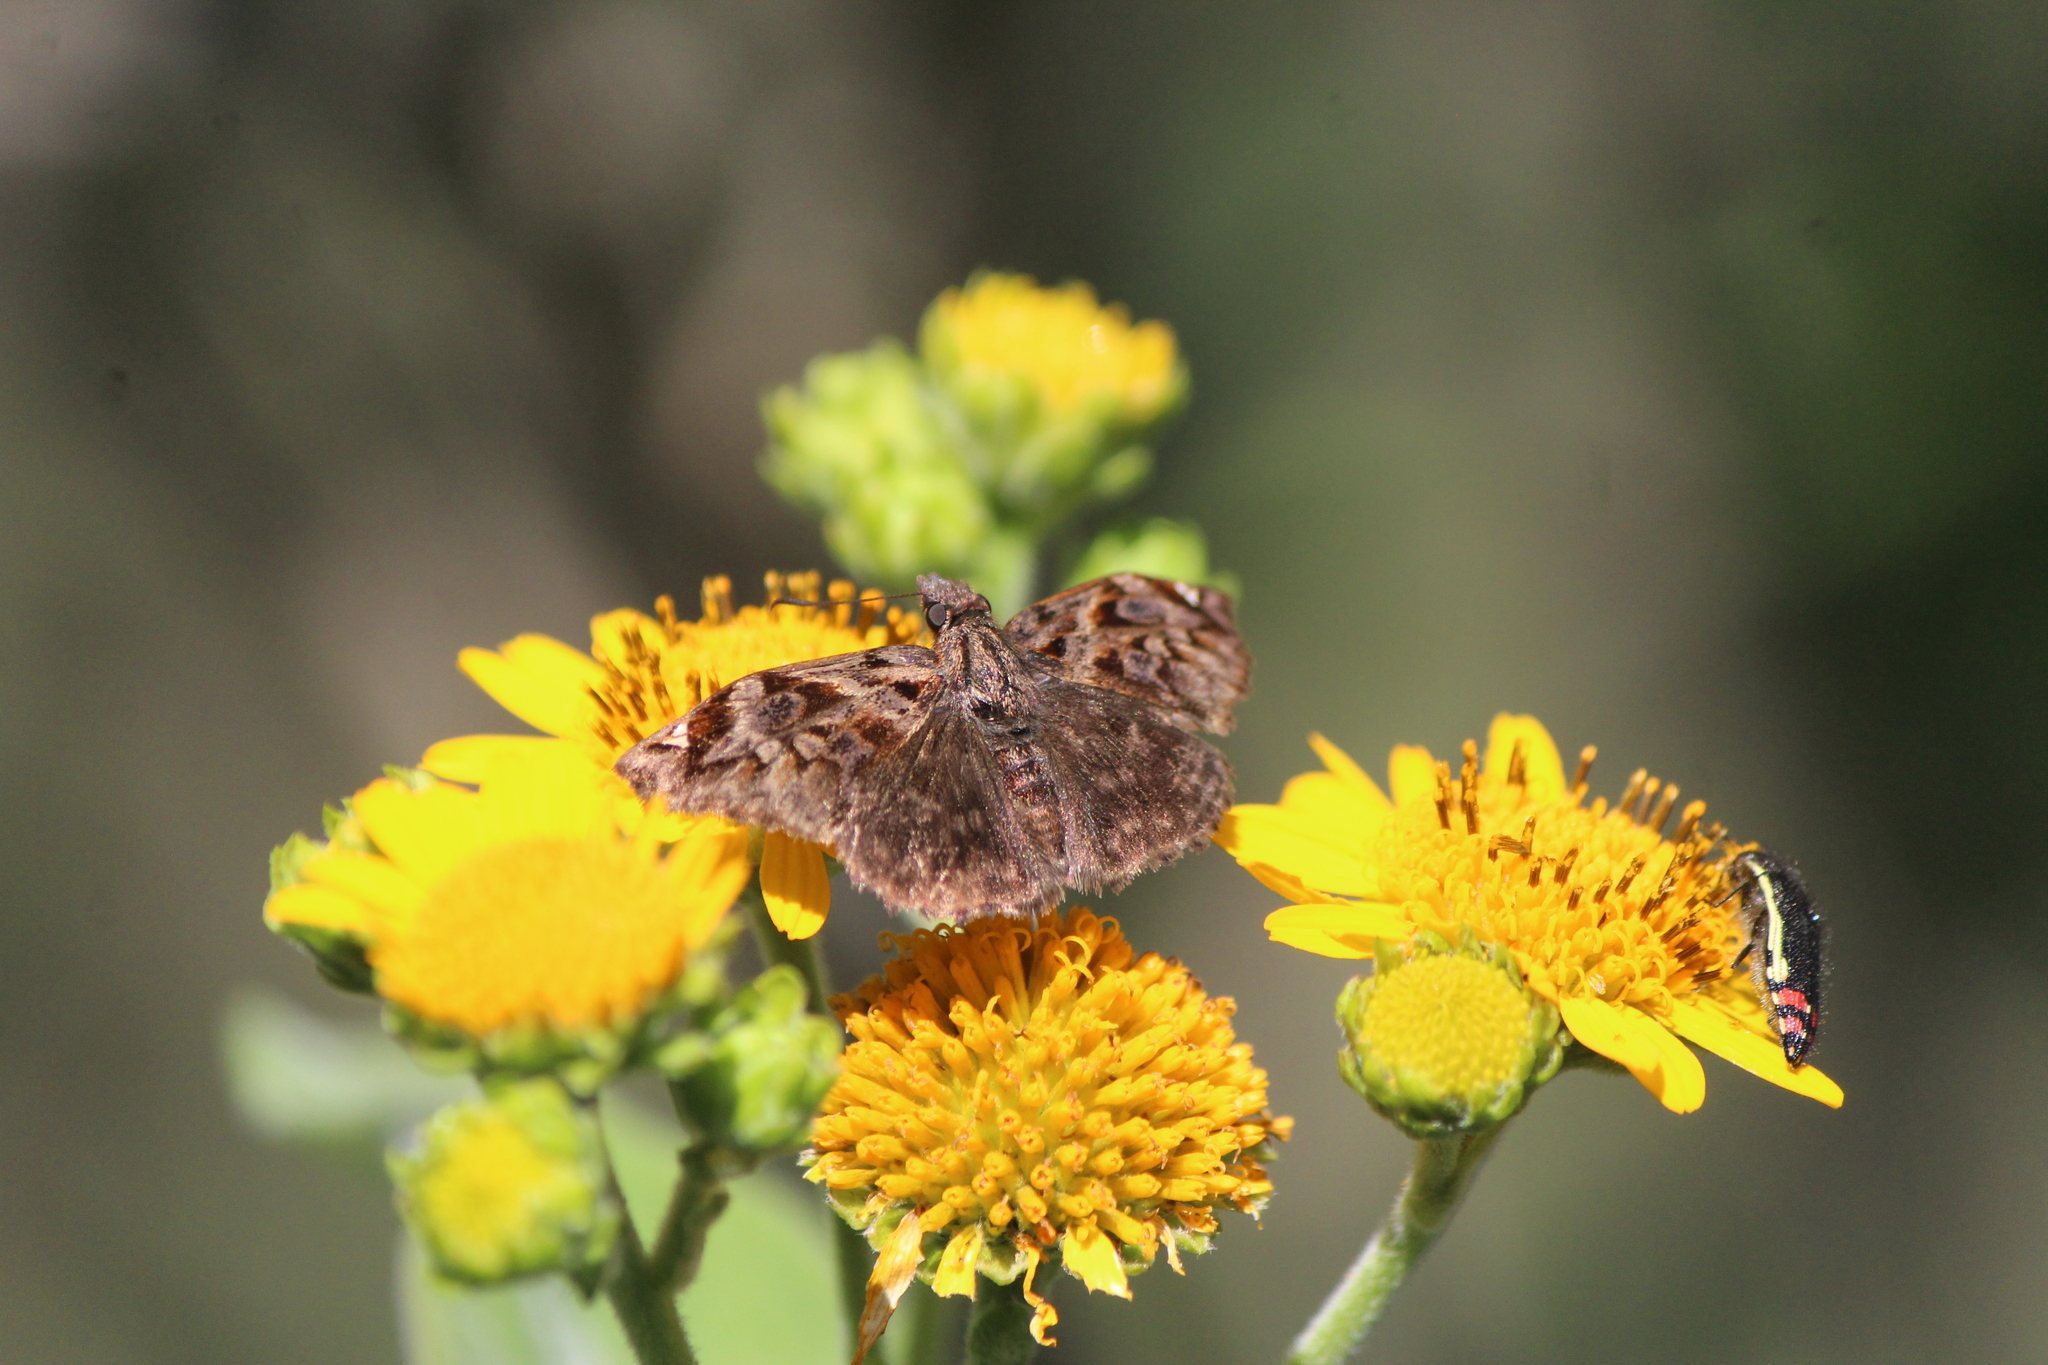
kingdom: Animalia
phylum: Arthropoda
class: Insecta
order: Lepidoptera
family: Hesperiidae
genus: Noctuana
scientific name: Noctuana stator
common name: Red-studded skipper
